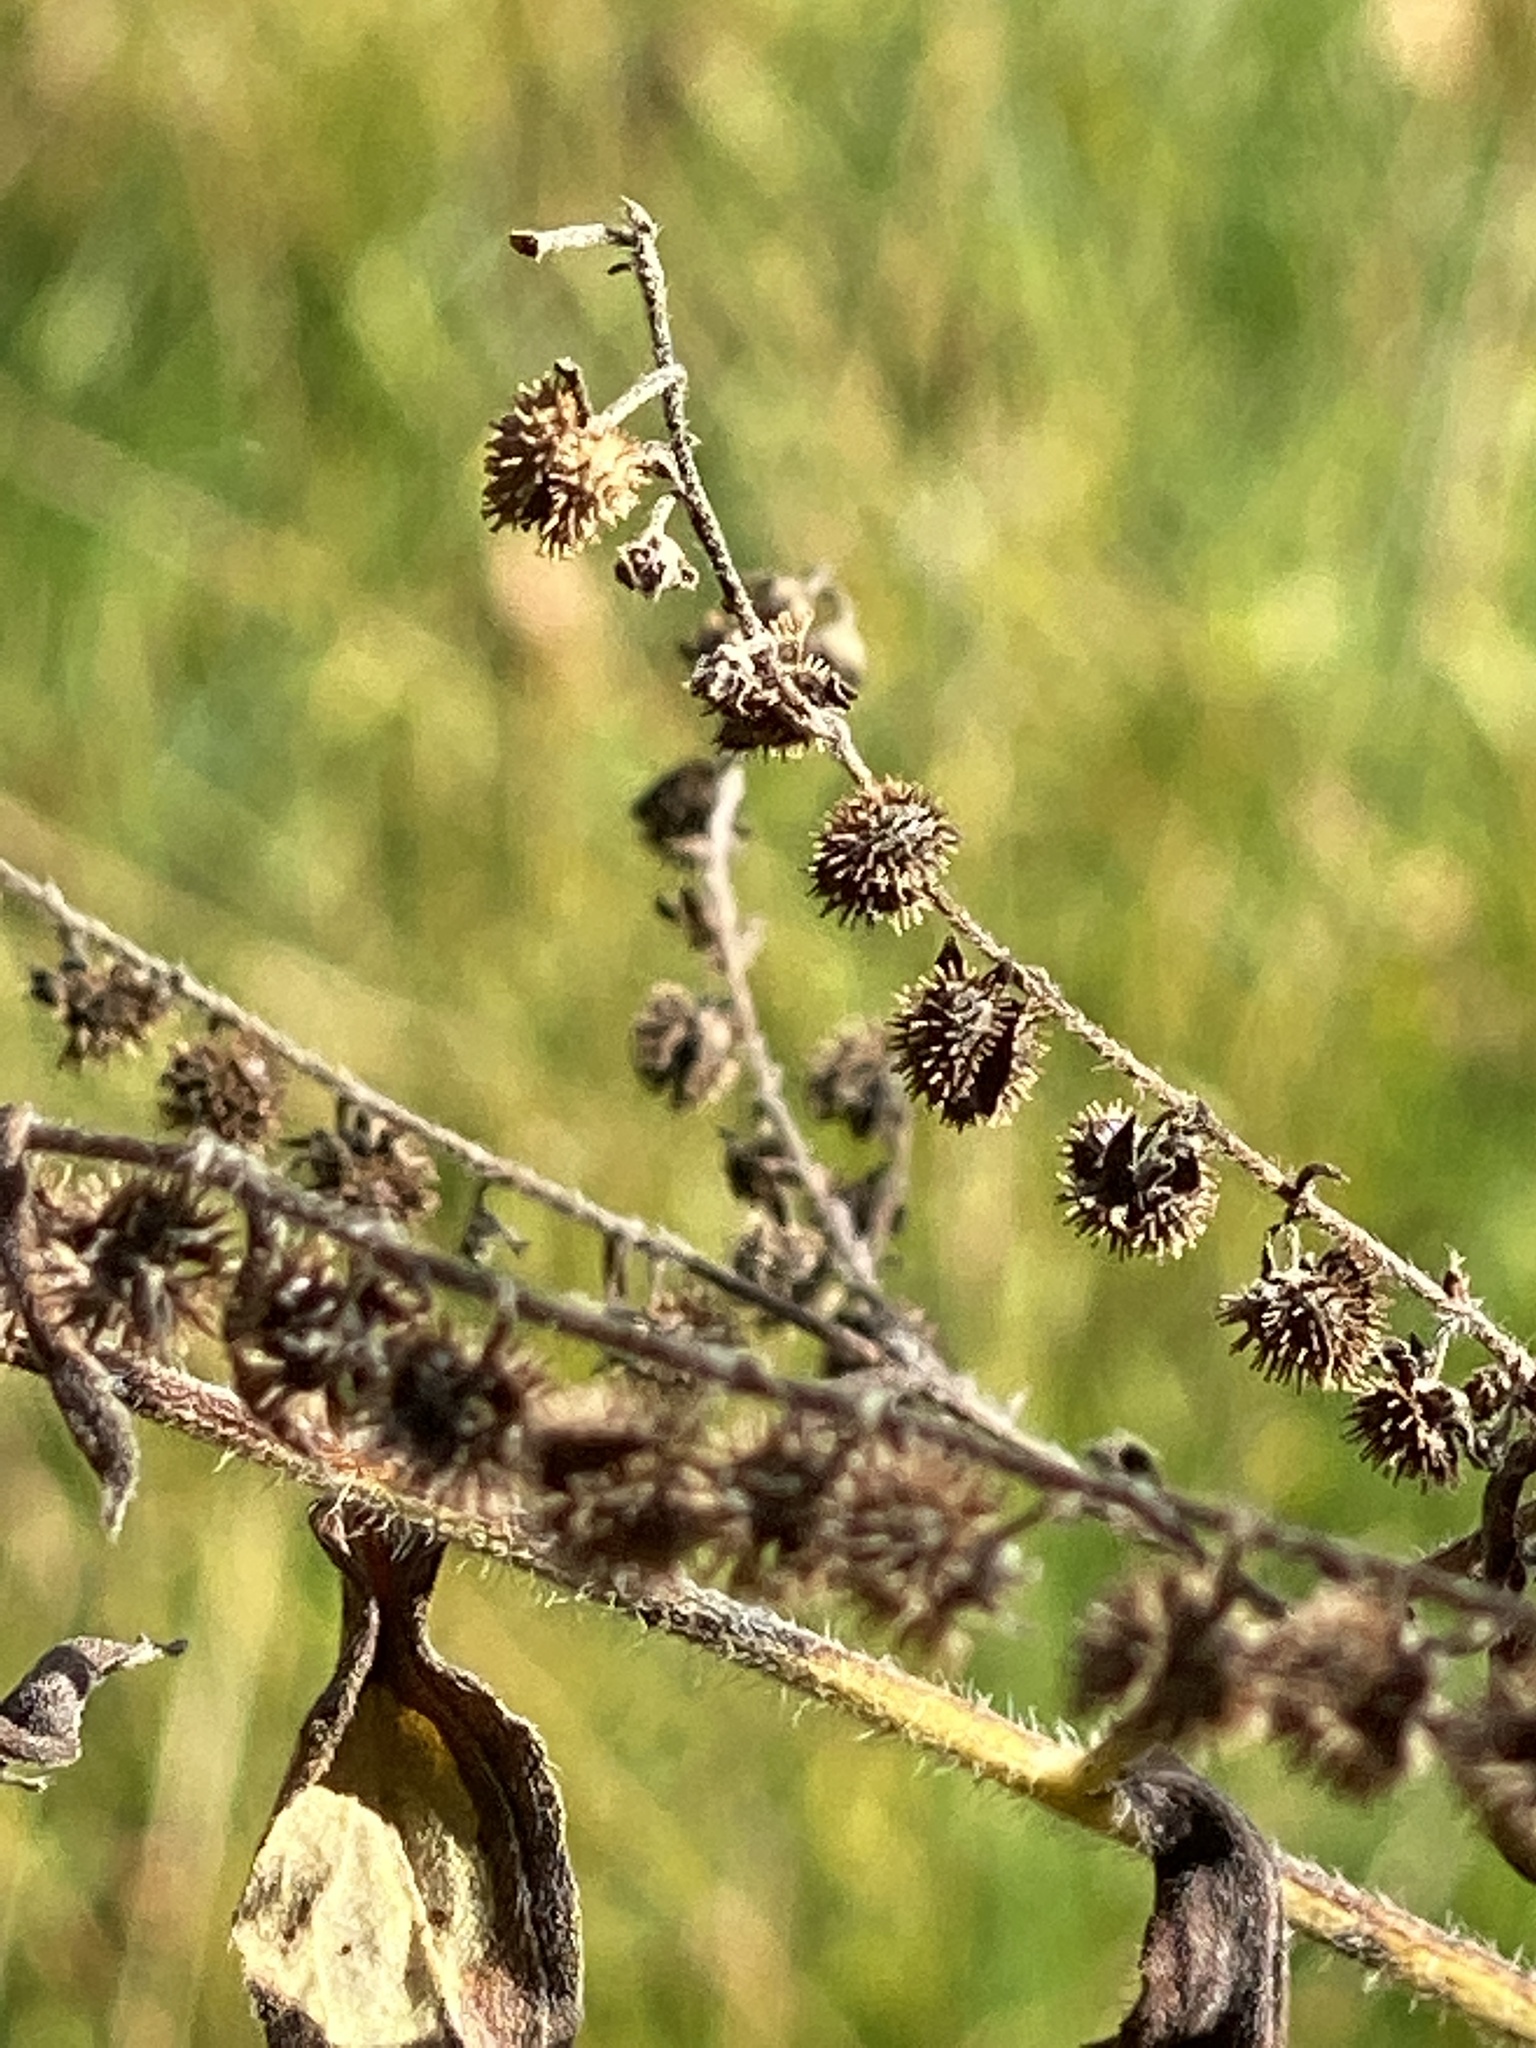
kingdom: Plantae
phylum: Tracheophyta
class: Magnoliopsida
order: Boraginales
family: Boraginaceae
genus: Hackelia
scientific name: Hackelia virginiana
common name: Beggar's-lice
